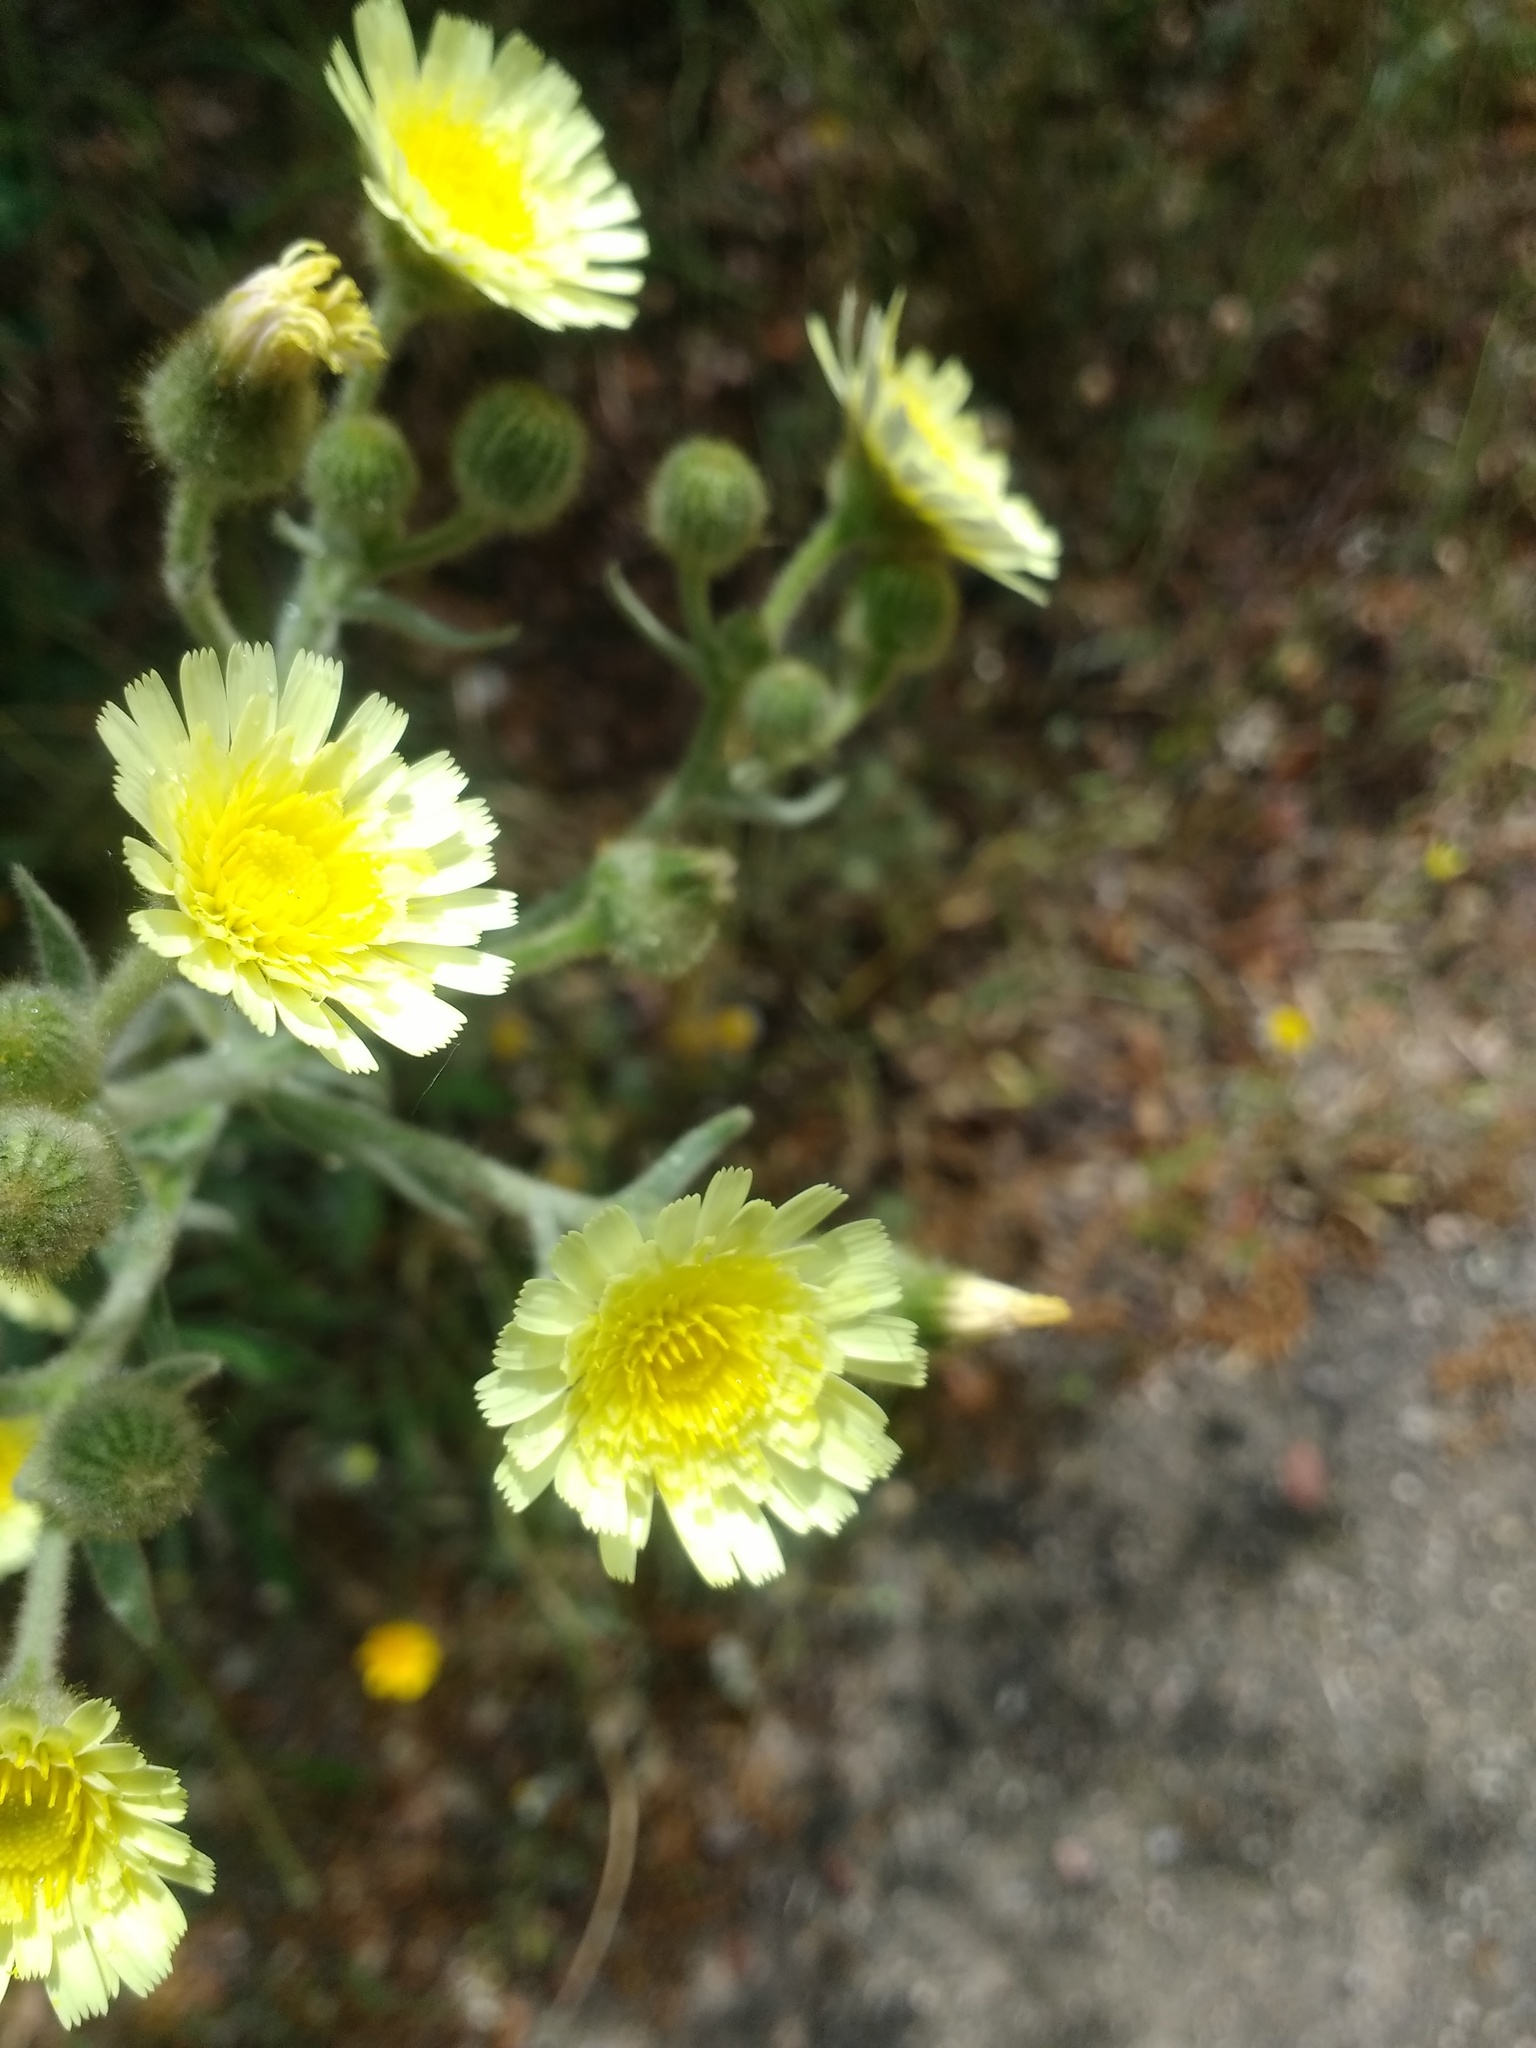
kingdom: Plantae
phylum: Tracheophyta
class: Magnoliopsida
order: Asterales
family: Asteraceae
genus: Andryala
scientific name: Andryala integrifolia
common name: Common andryala
